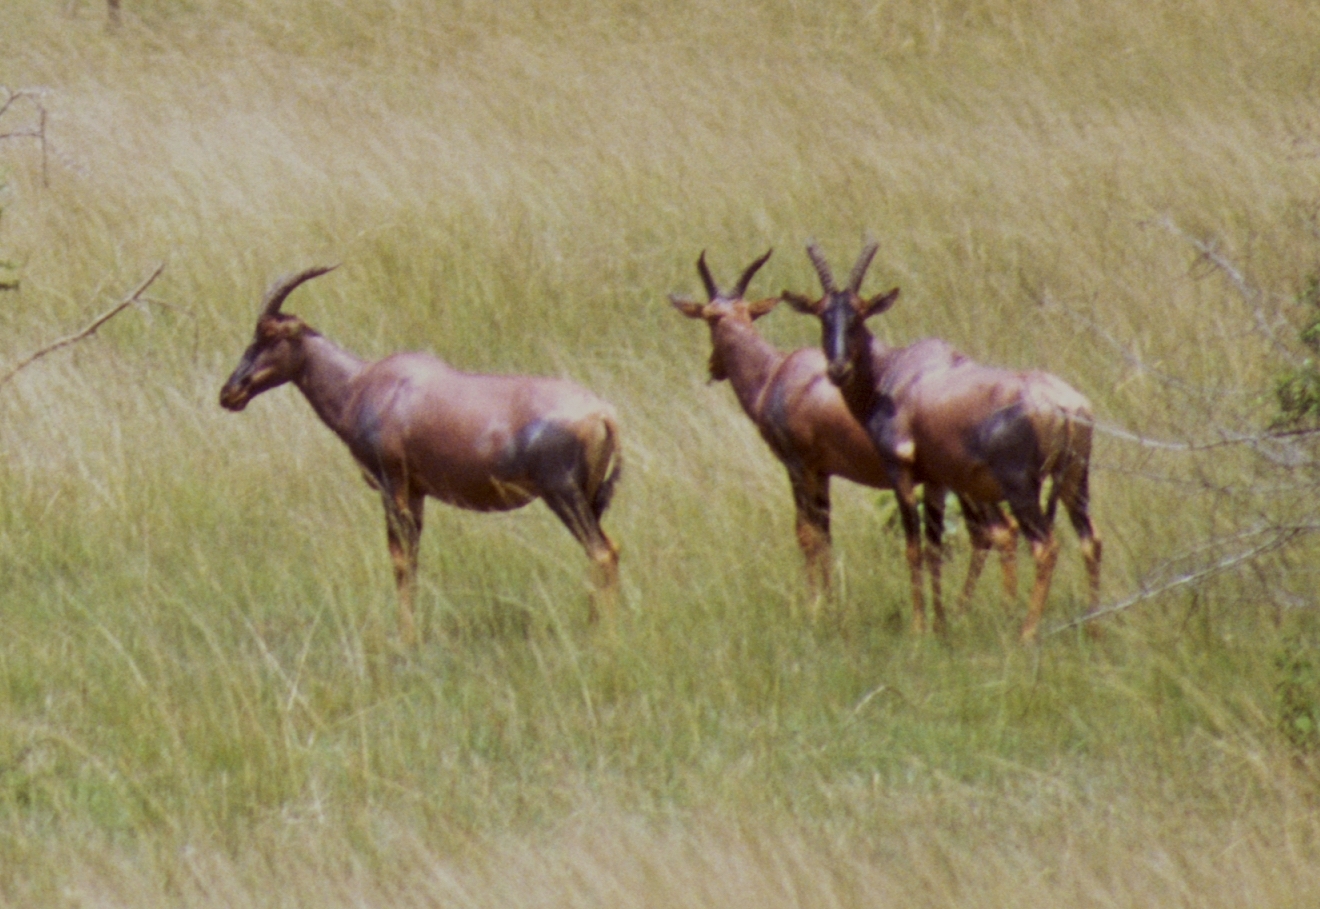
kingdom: Animalia
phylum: Chordata
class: Mammalia
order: Artiodactyla
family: Bovidae
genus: Damaliscus
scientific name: Damaliscus korrigum
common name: Topi
